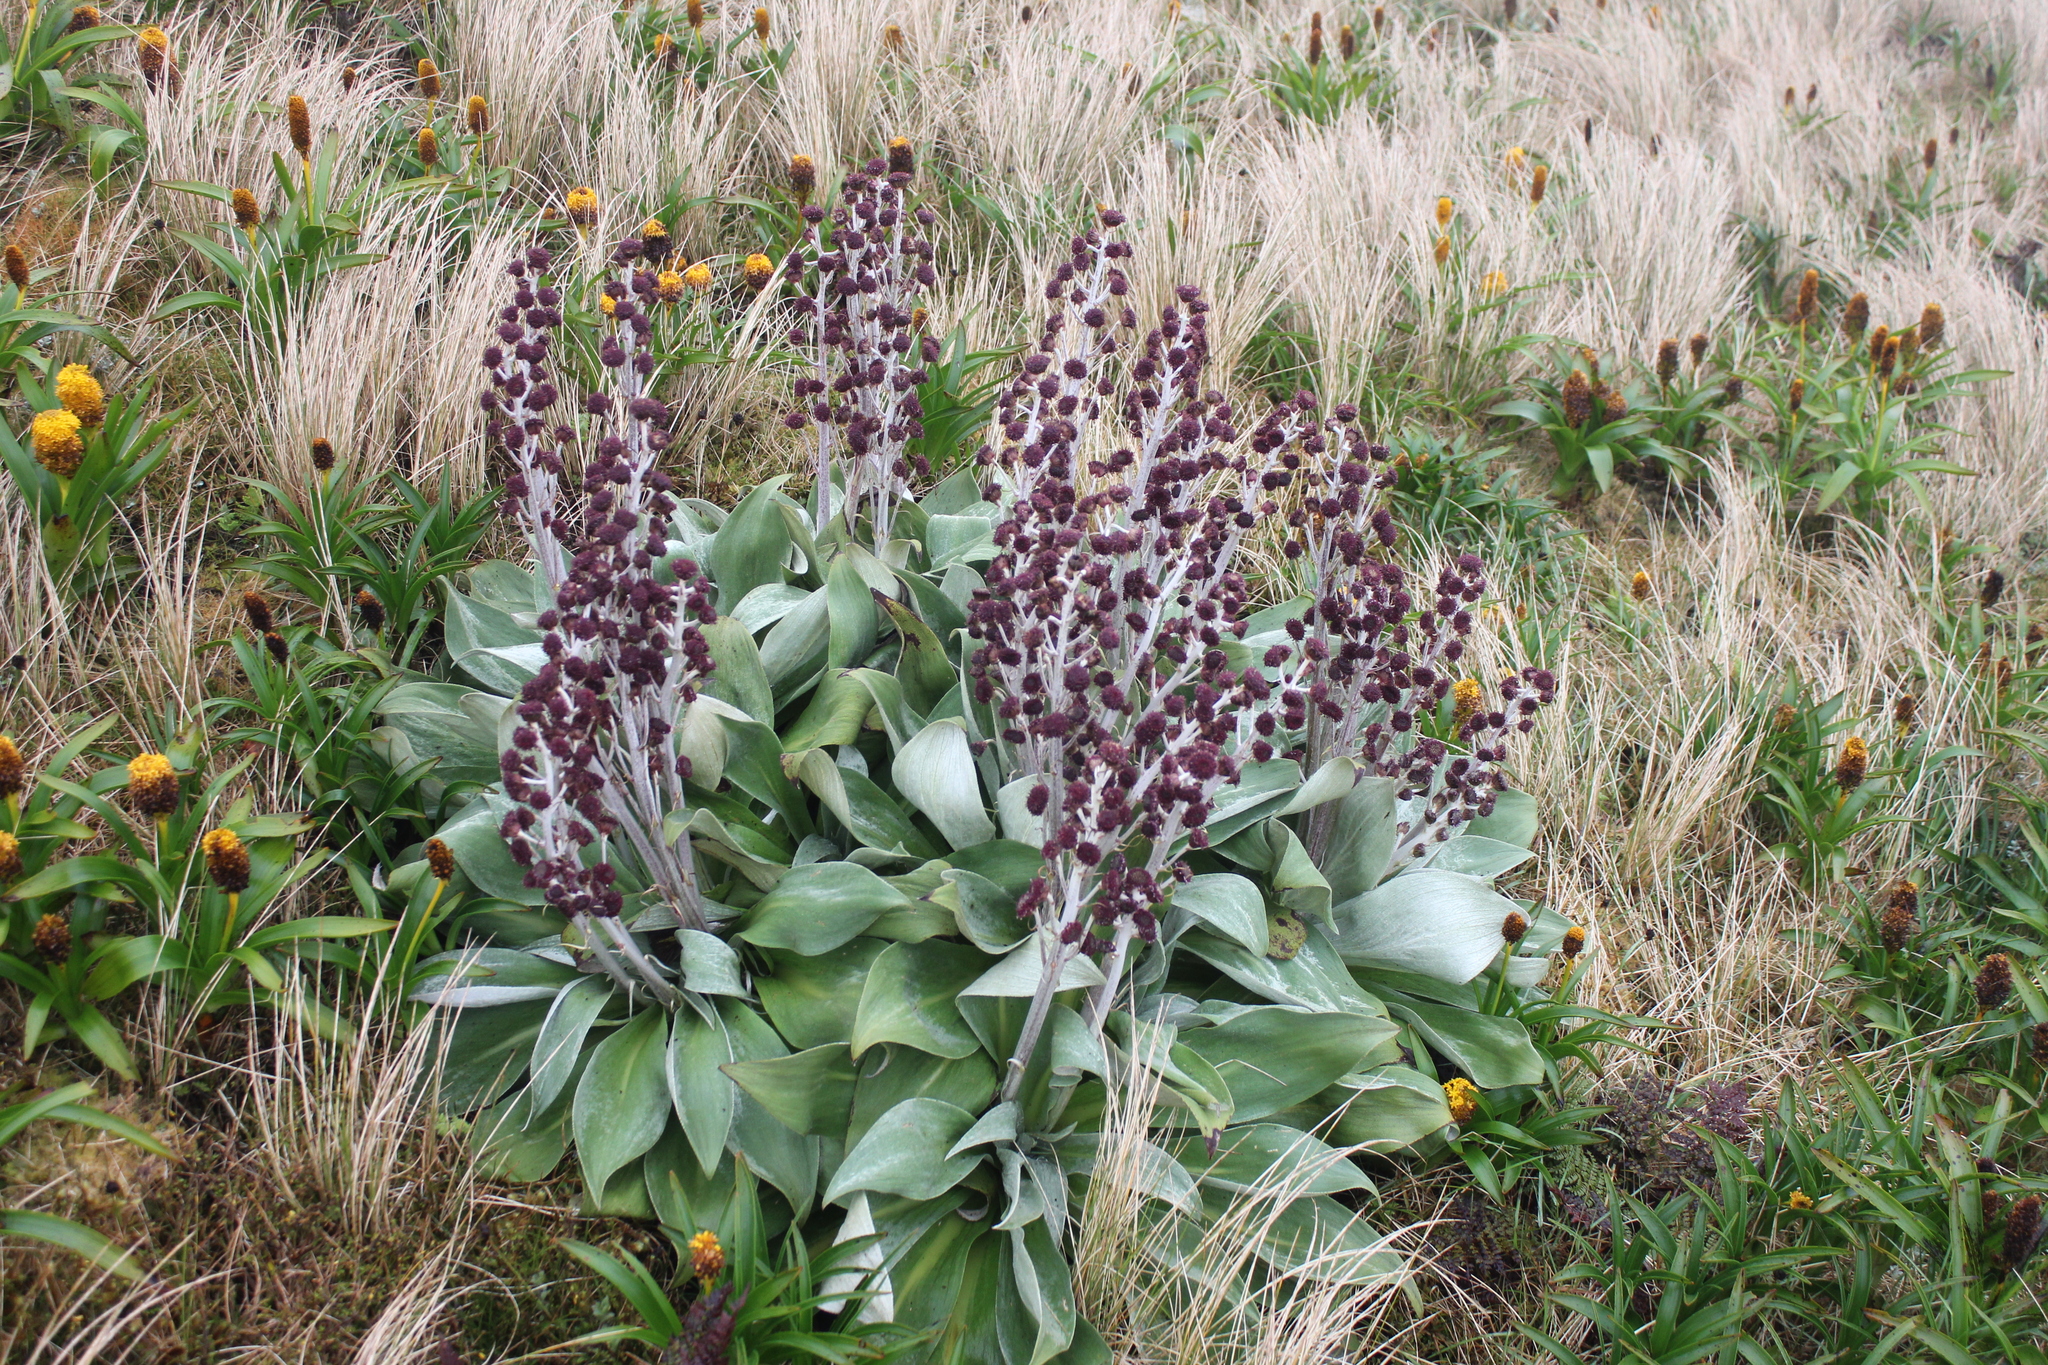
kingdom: Plantae
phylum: Tracheophyta
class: Magnoliopsida
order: Asterales
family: Asteraceae
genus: Pleurophyllum
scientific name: Pleurophyllum hookeri
